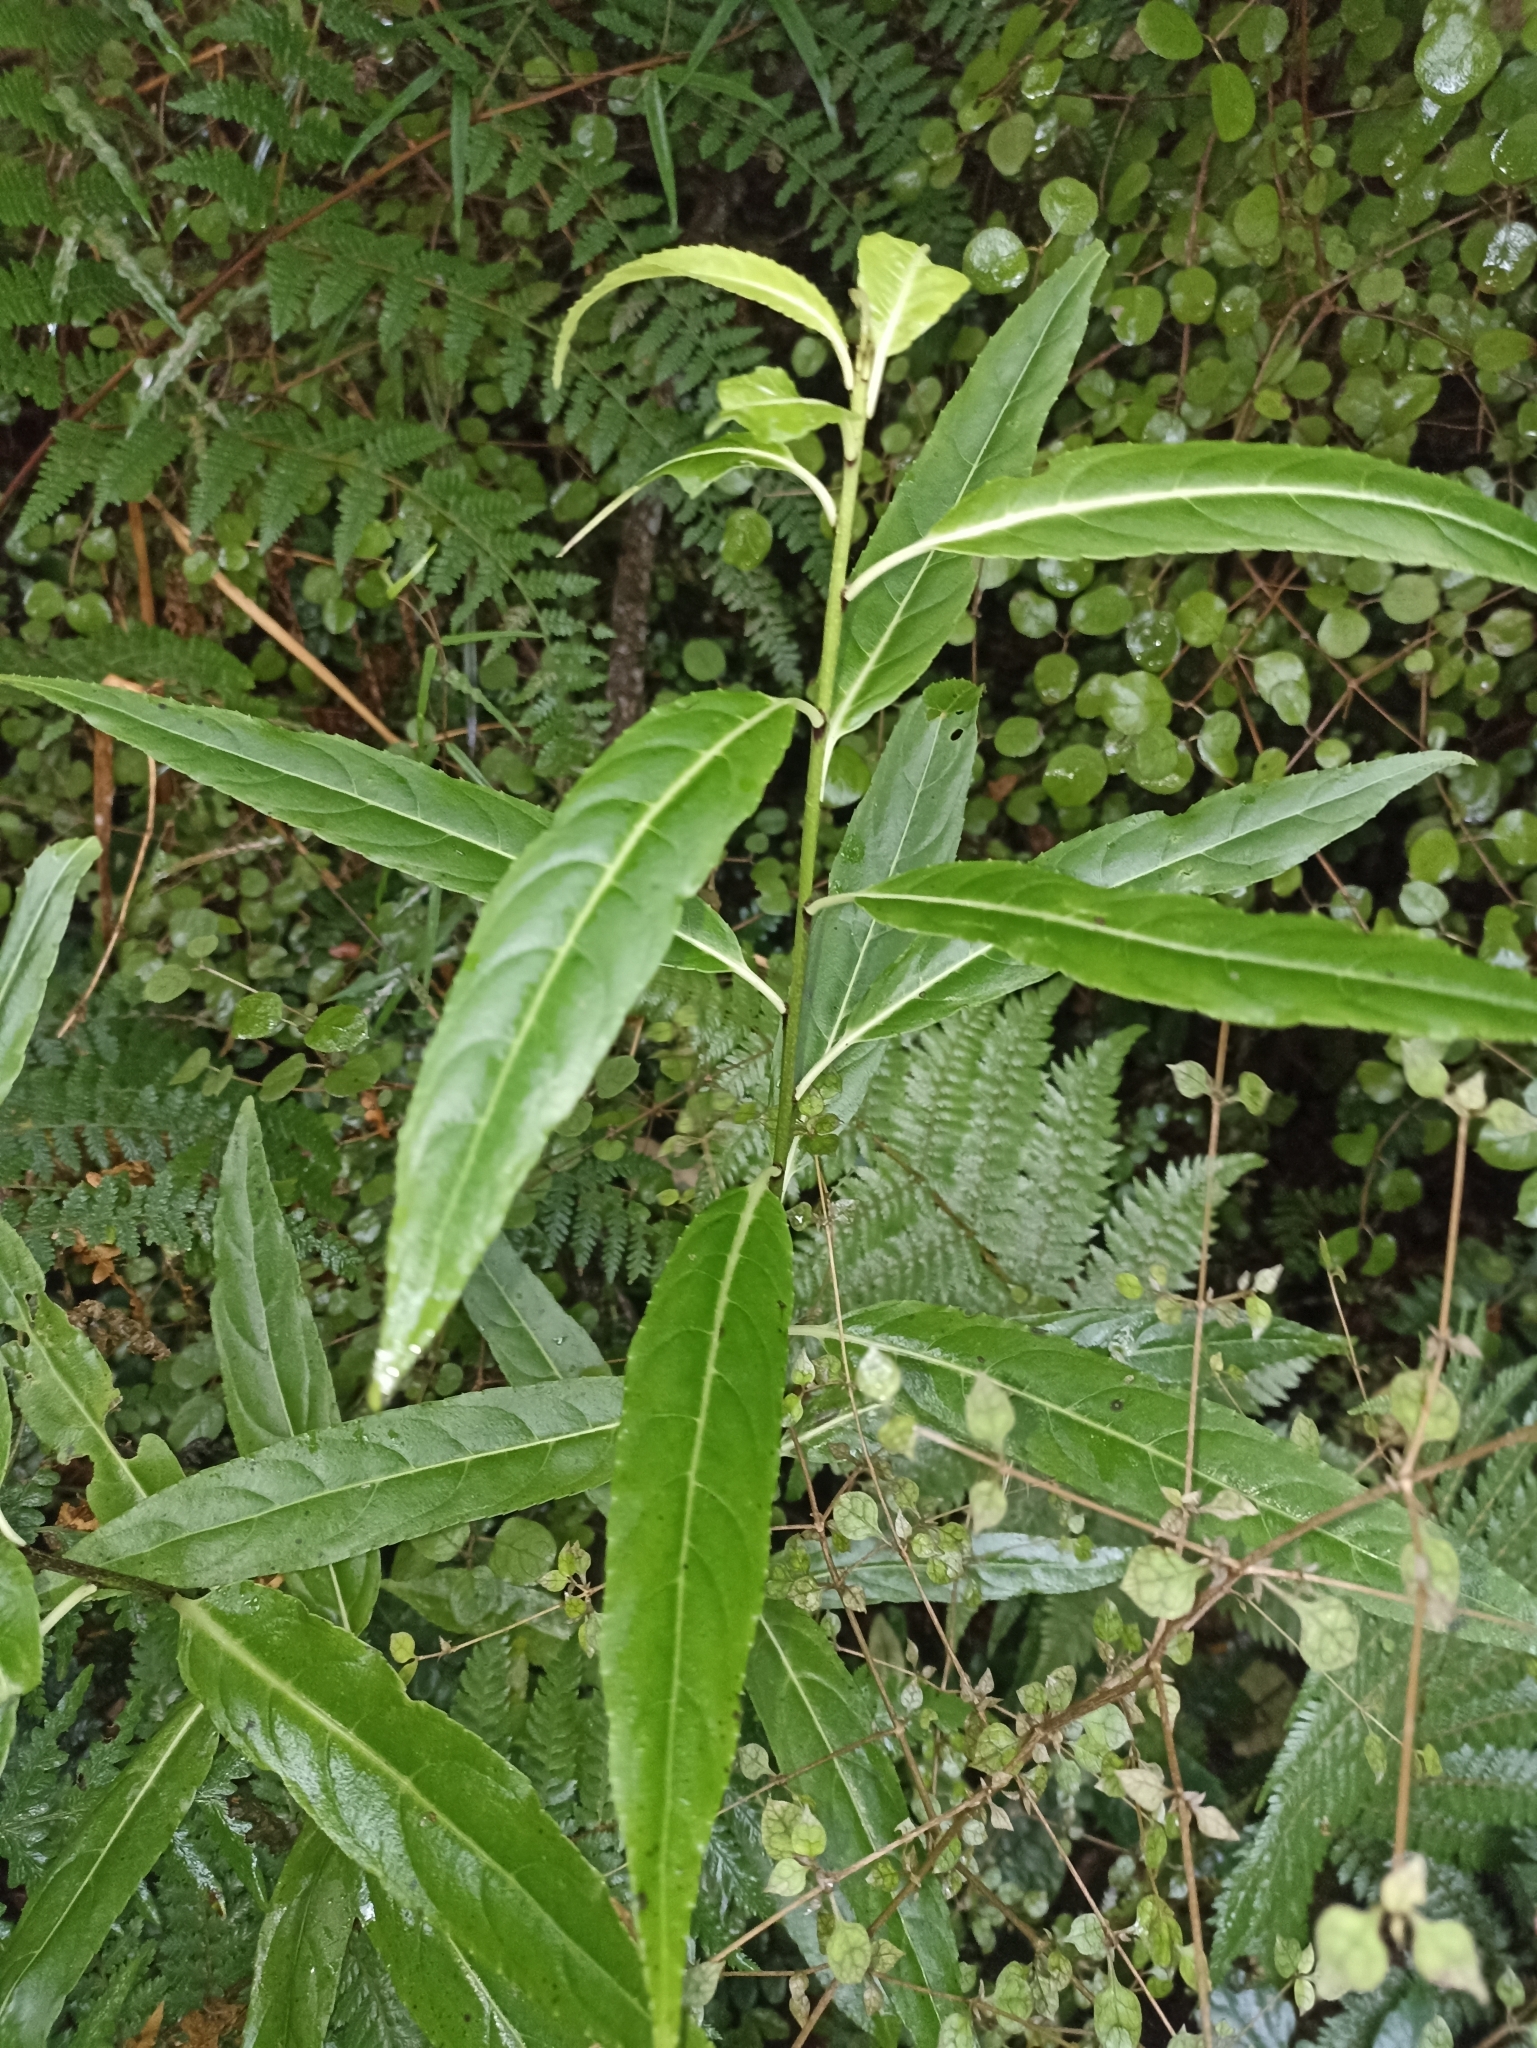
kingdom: Plantae
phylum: Tracheophyta
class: Magnoliopsida
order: Malpighiales
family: Violaceae
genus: Melicytus
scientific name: Melicytus lanceolatus
